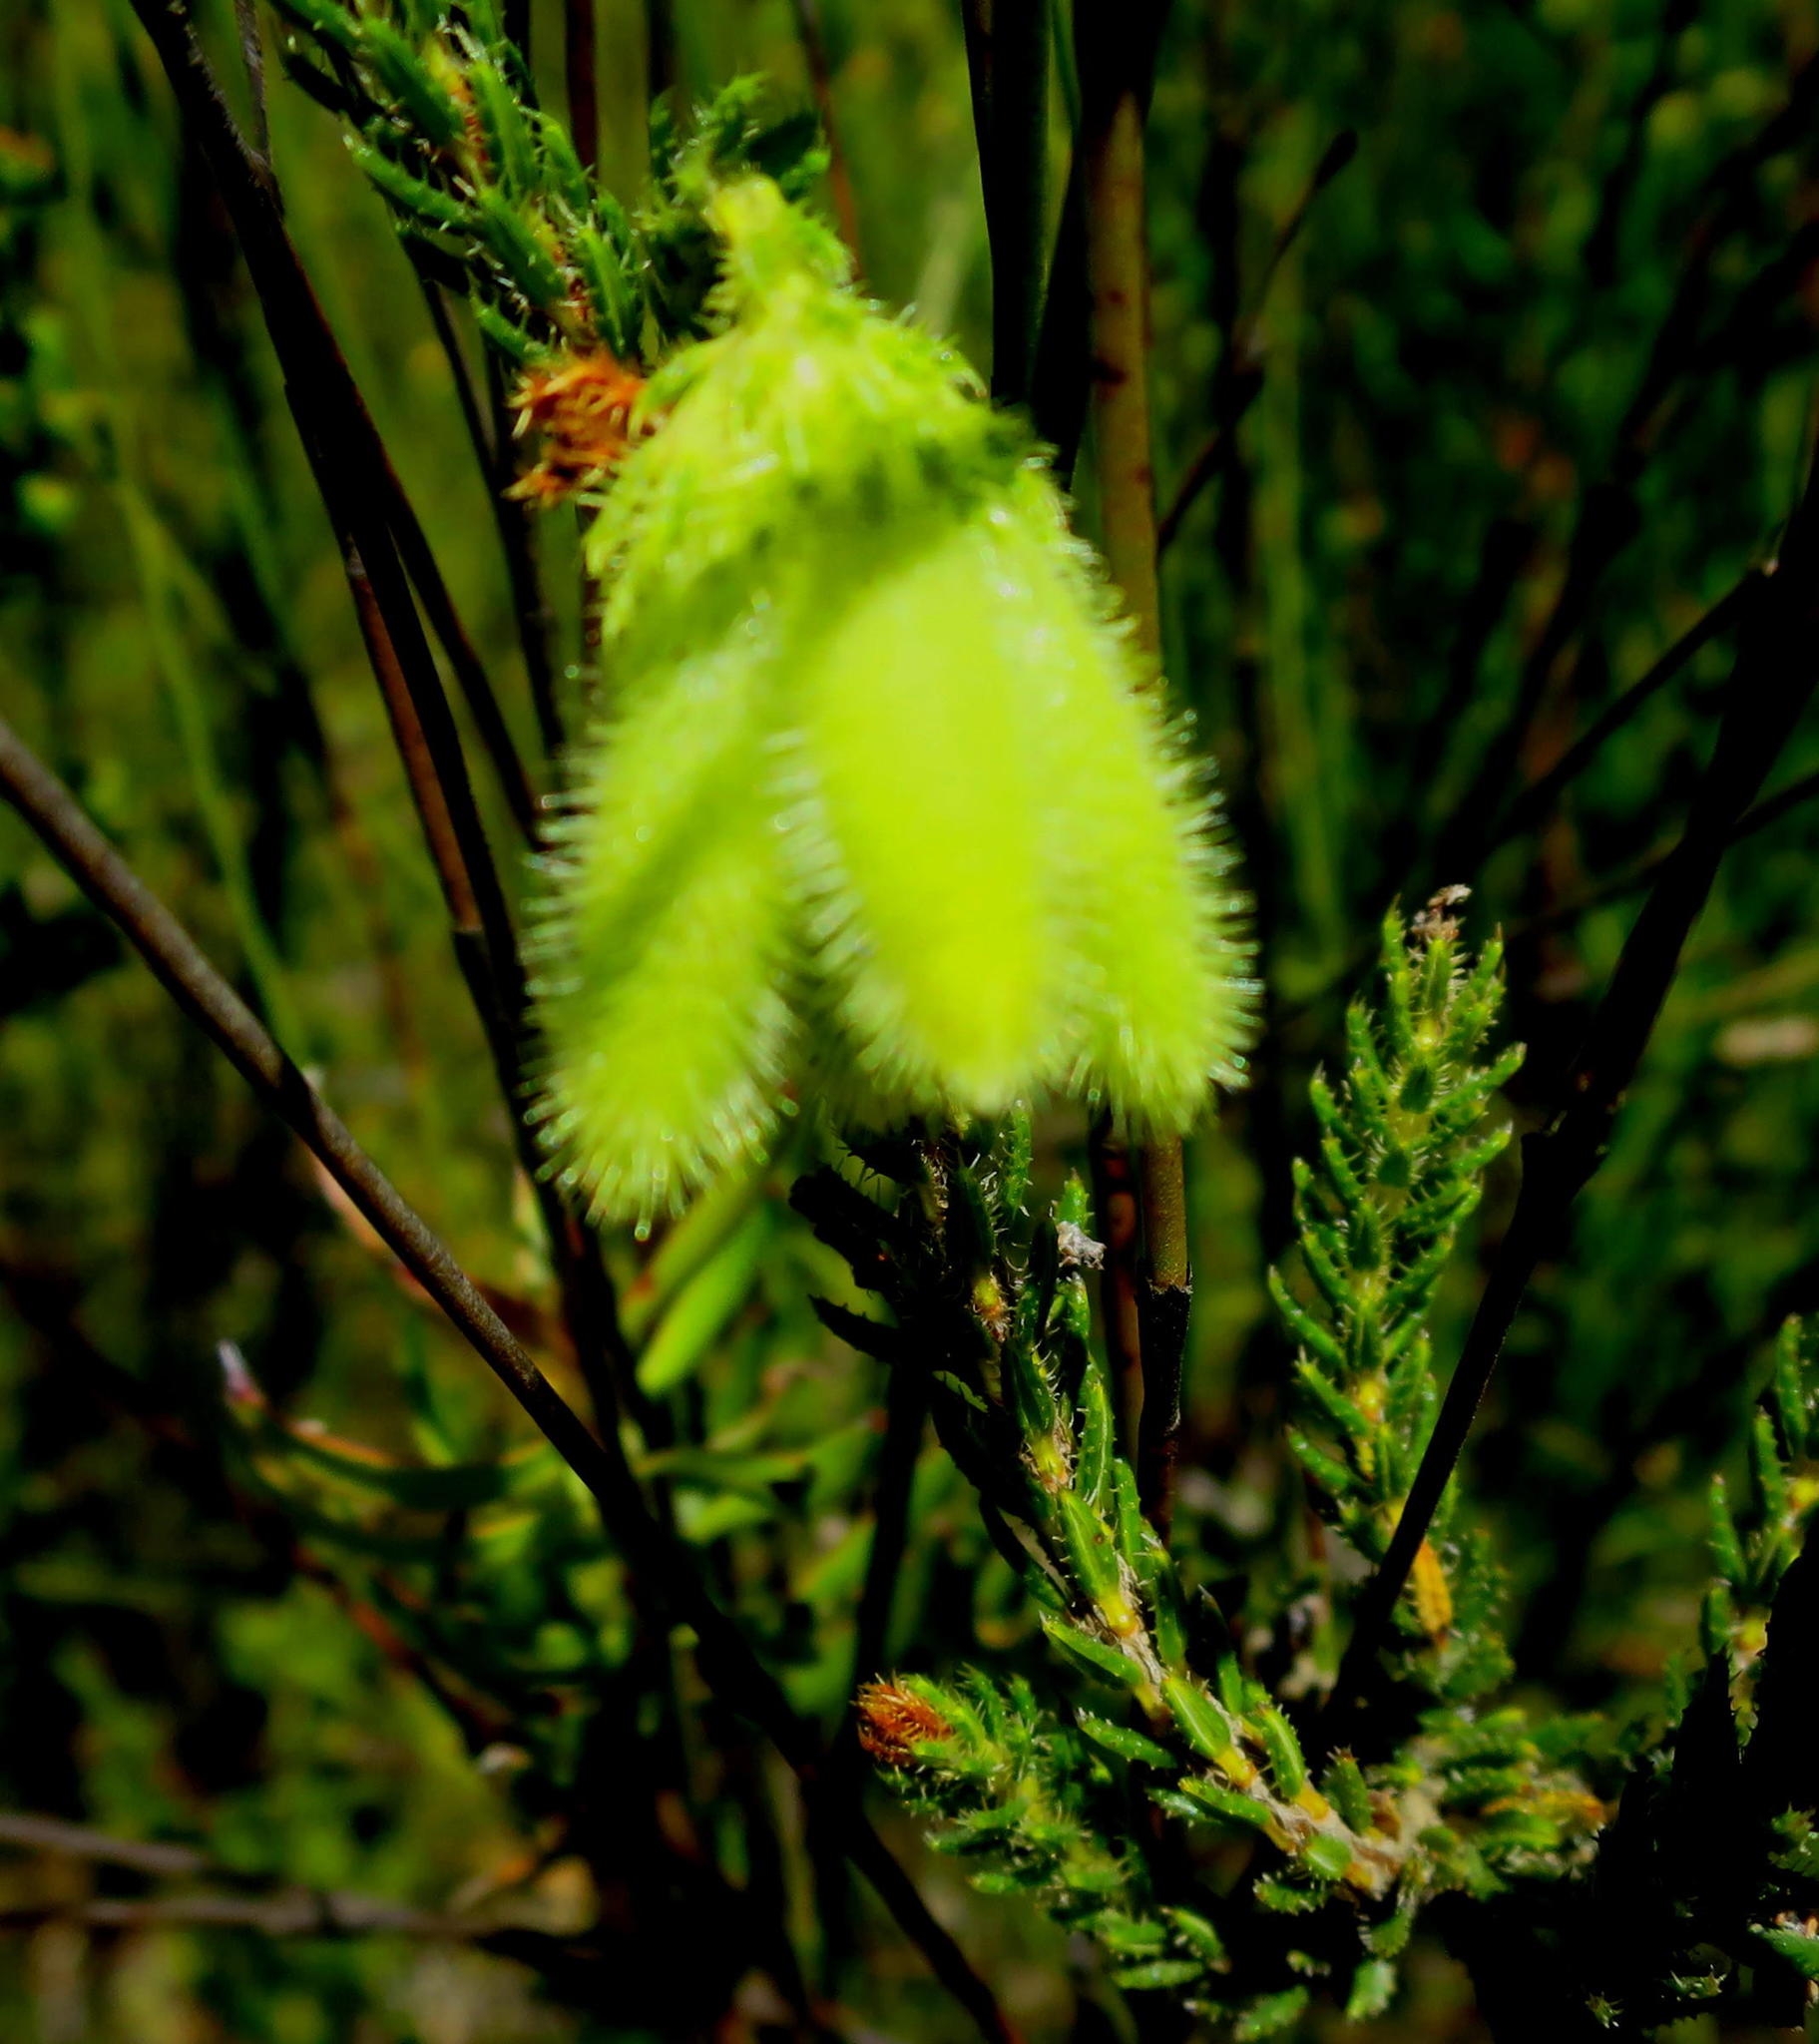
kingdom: Plantae
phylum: Tracheophyta
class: Magnoliopsida
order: Ericales
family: Ericaceae
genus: Erica
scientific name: Erica sparmannii
